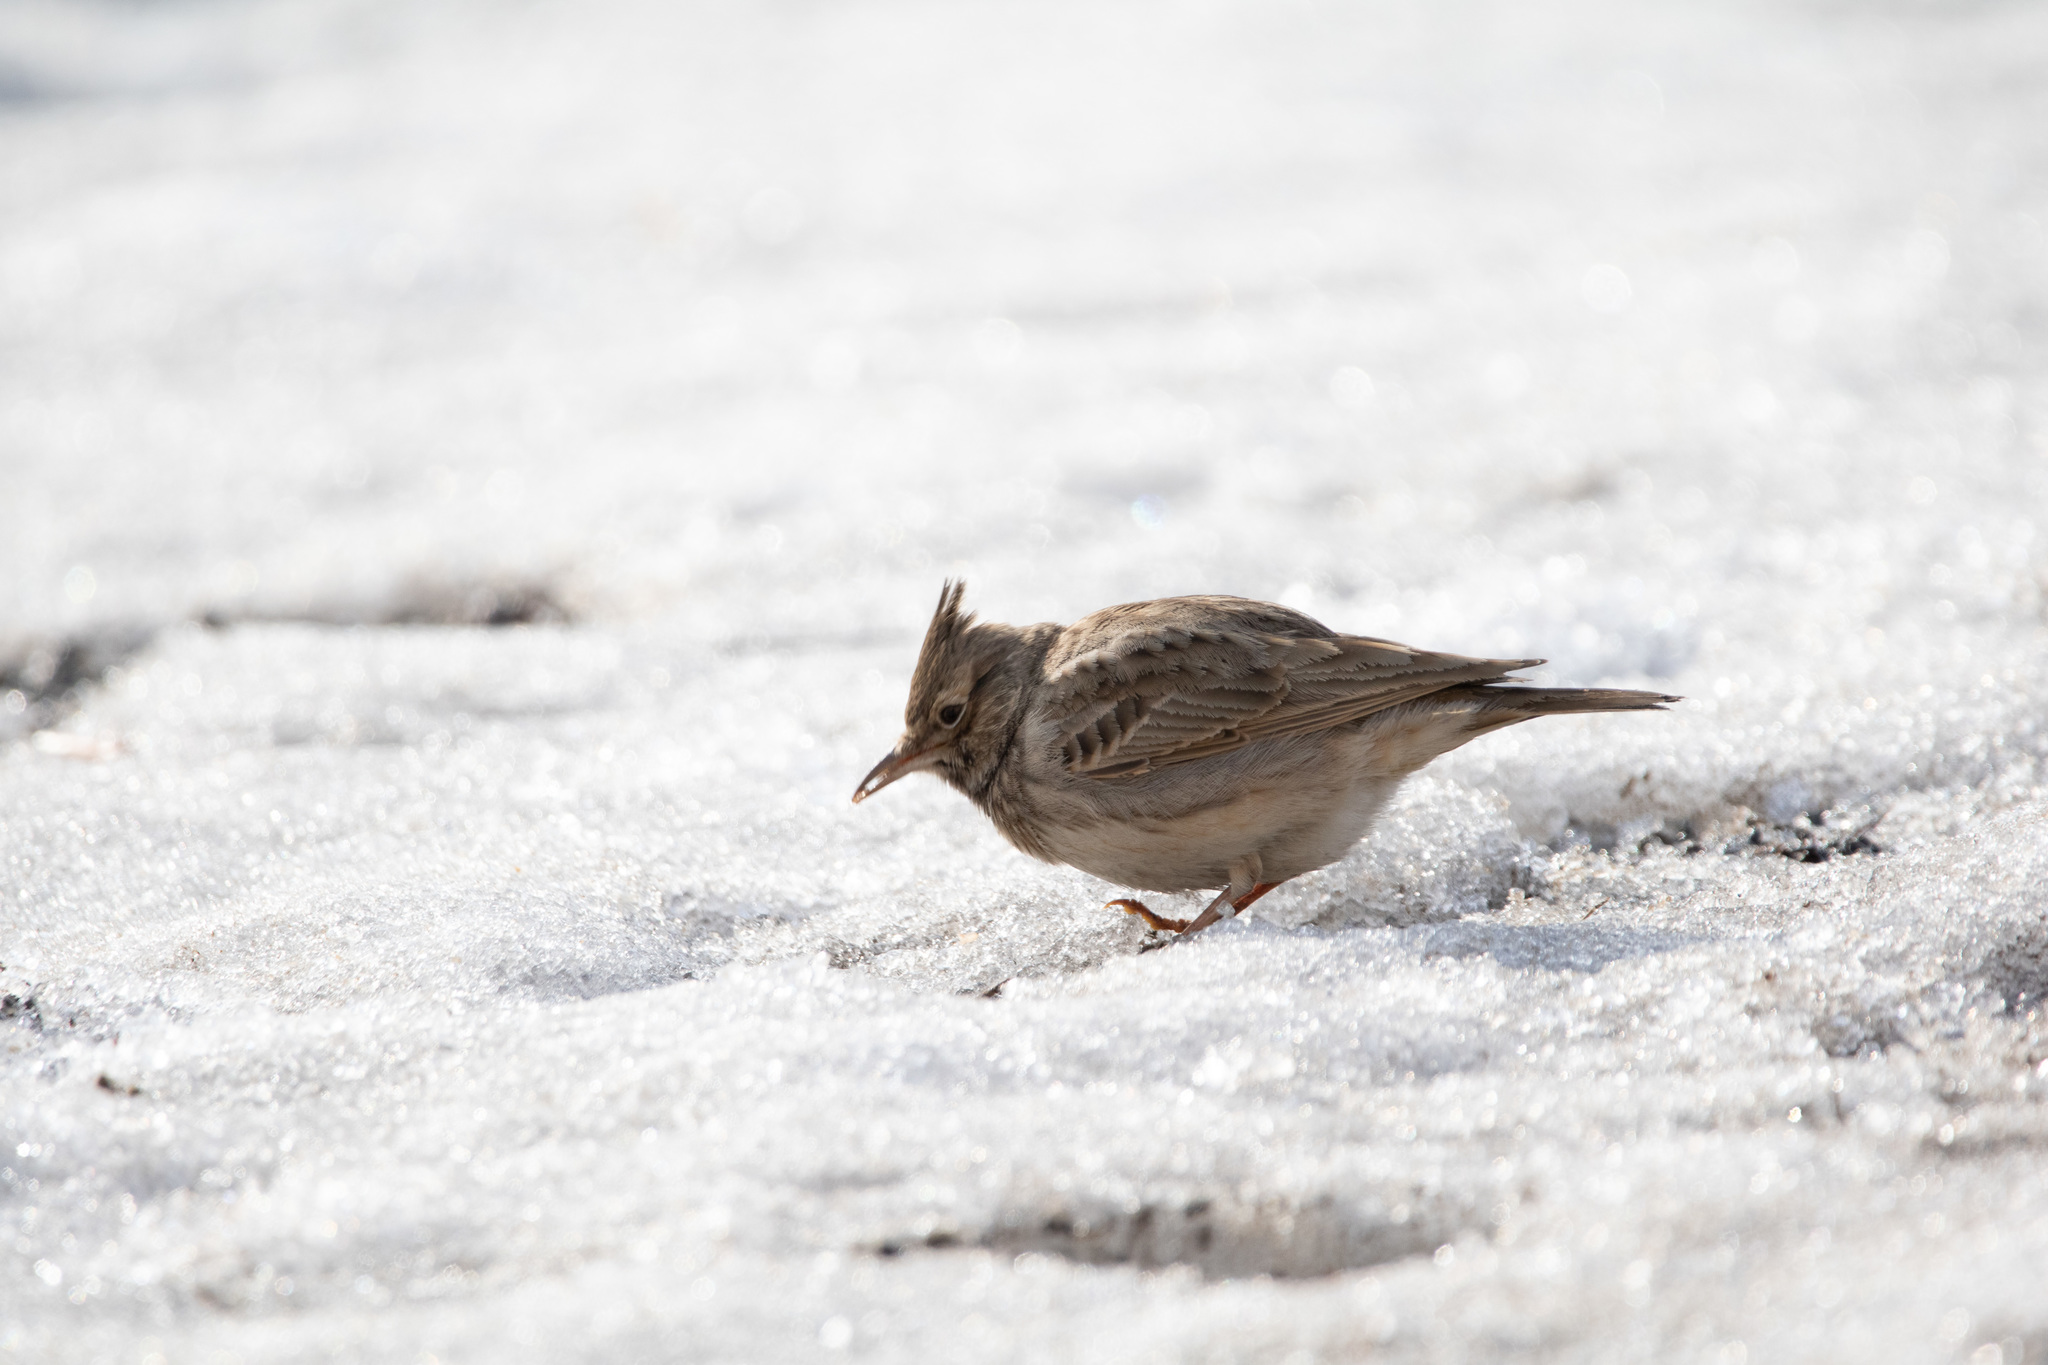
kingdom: Animalia
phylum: Chordata
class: Aves
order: Passeriformes
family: Alaudidae
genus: Galerida
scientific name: Galerida cristata
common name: Crested lark
